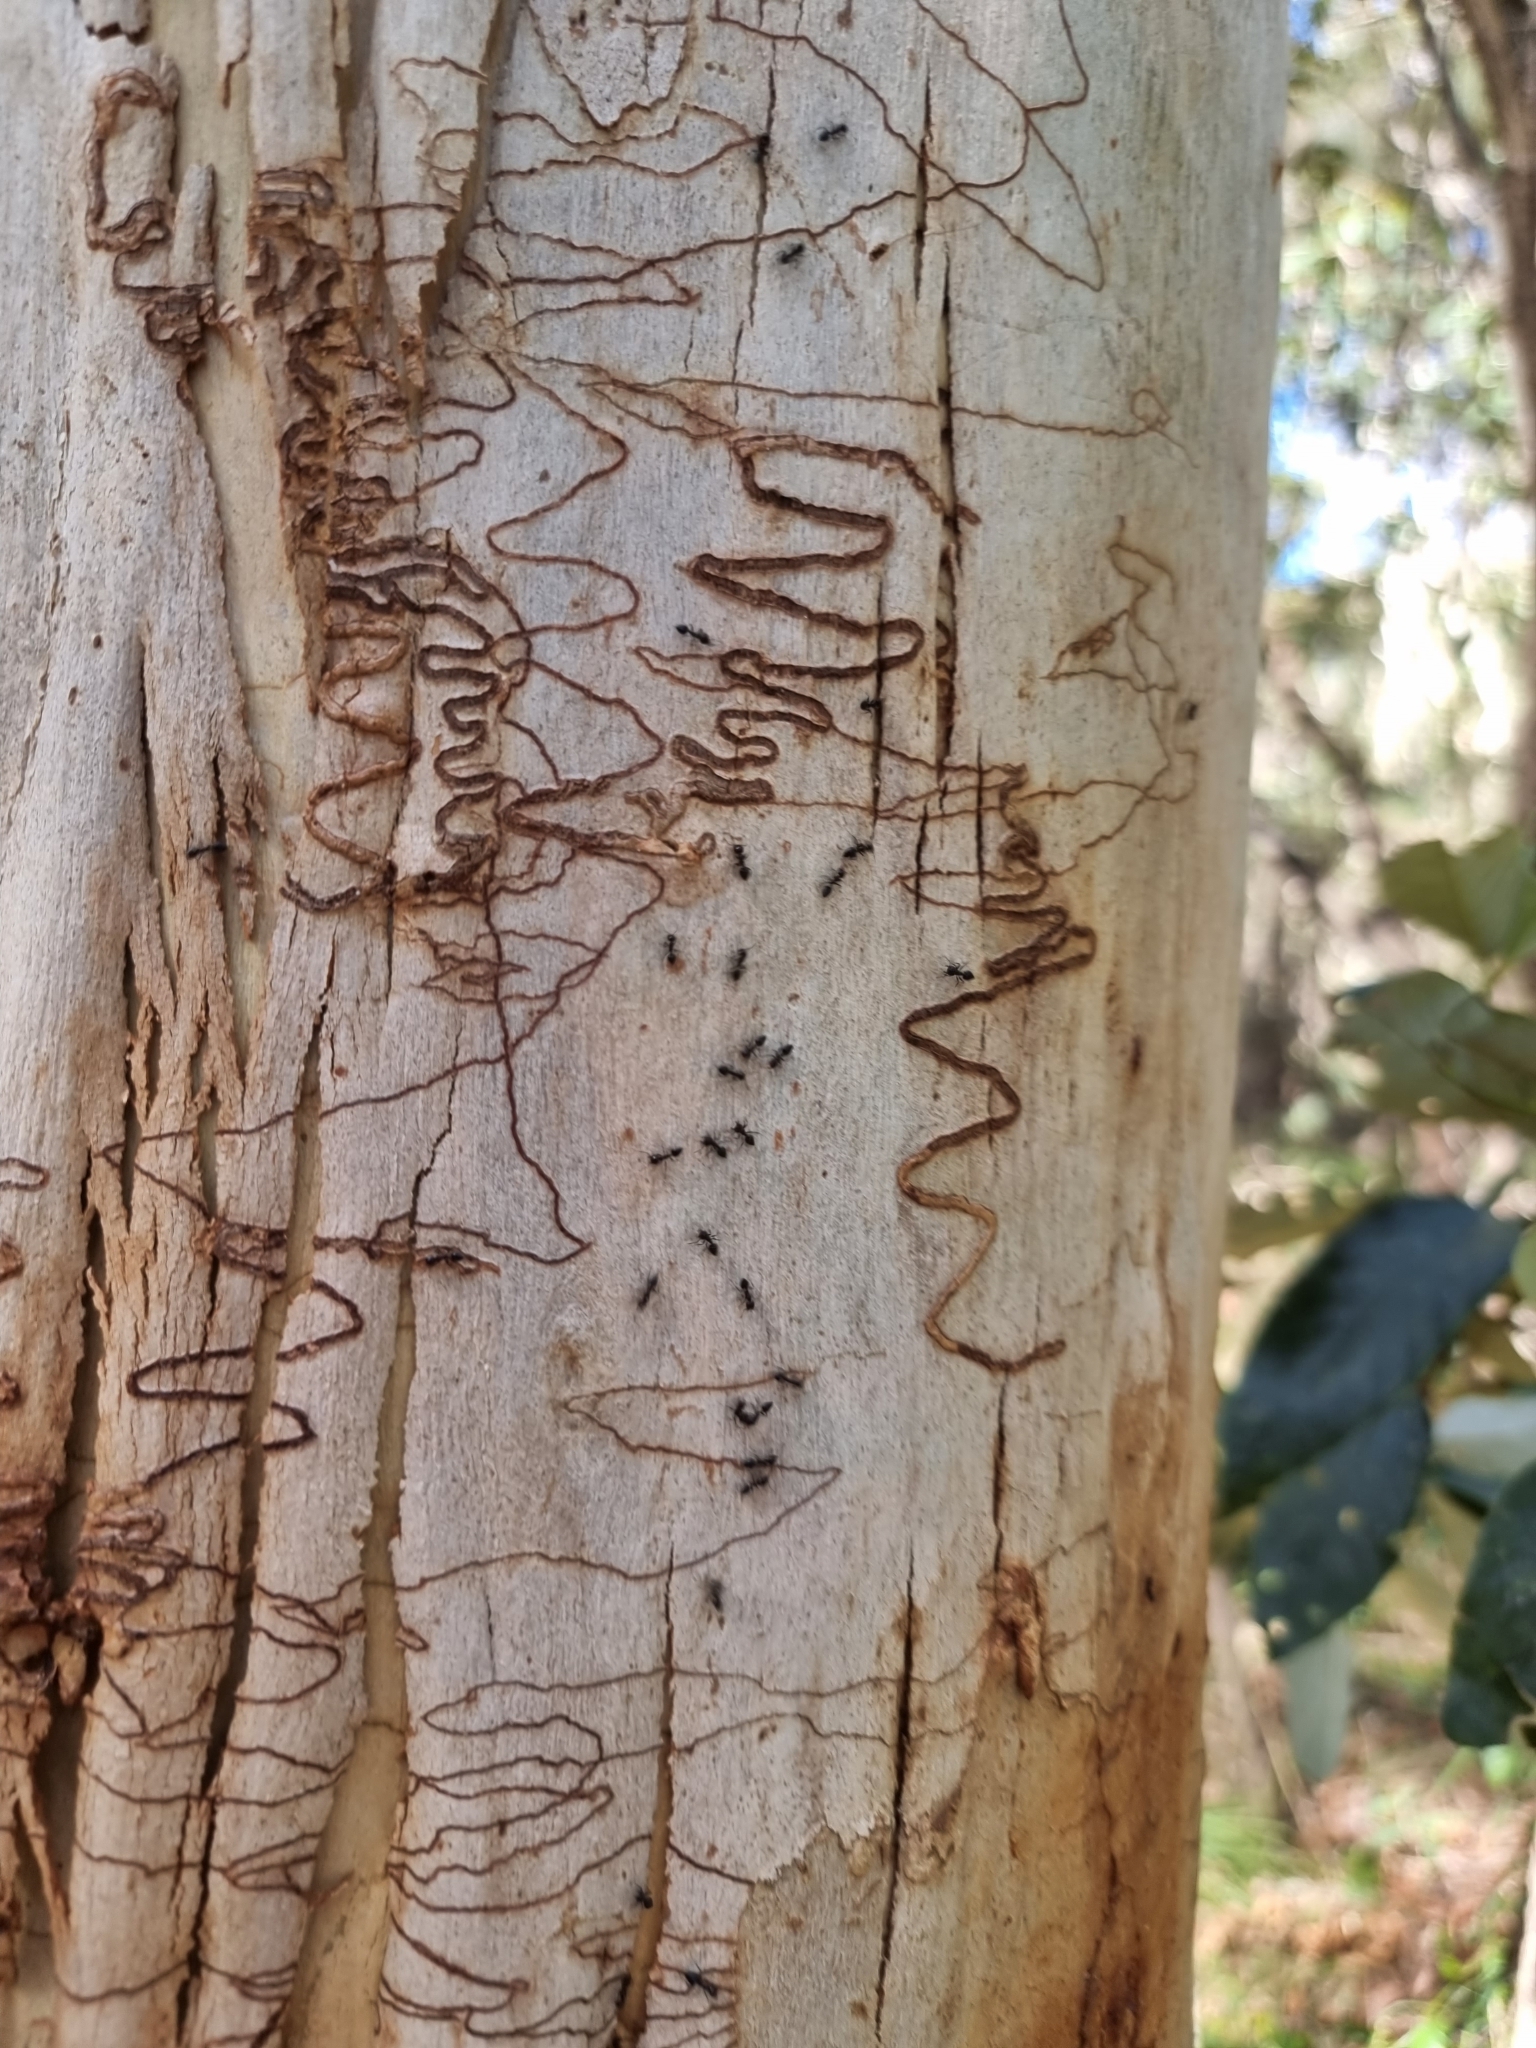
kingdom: Plantae
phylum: Tracheophyta
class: Magnoliopsida
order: Myrtales
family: Myrtaceae
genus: Eucalyptus
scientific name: Eucalyptus racemosa
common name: Scribbly gum
